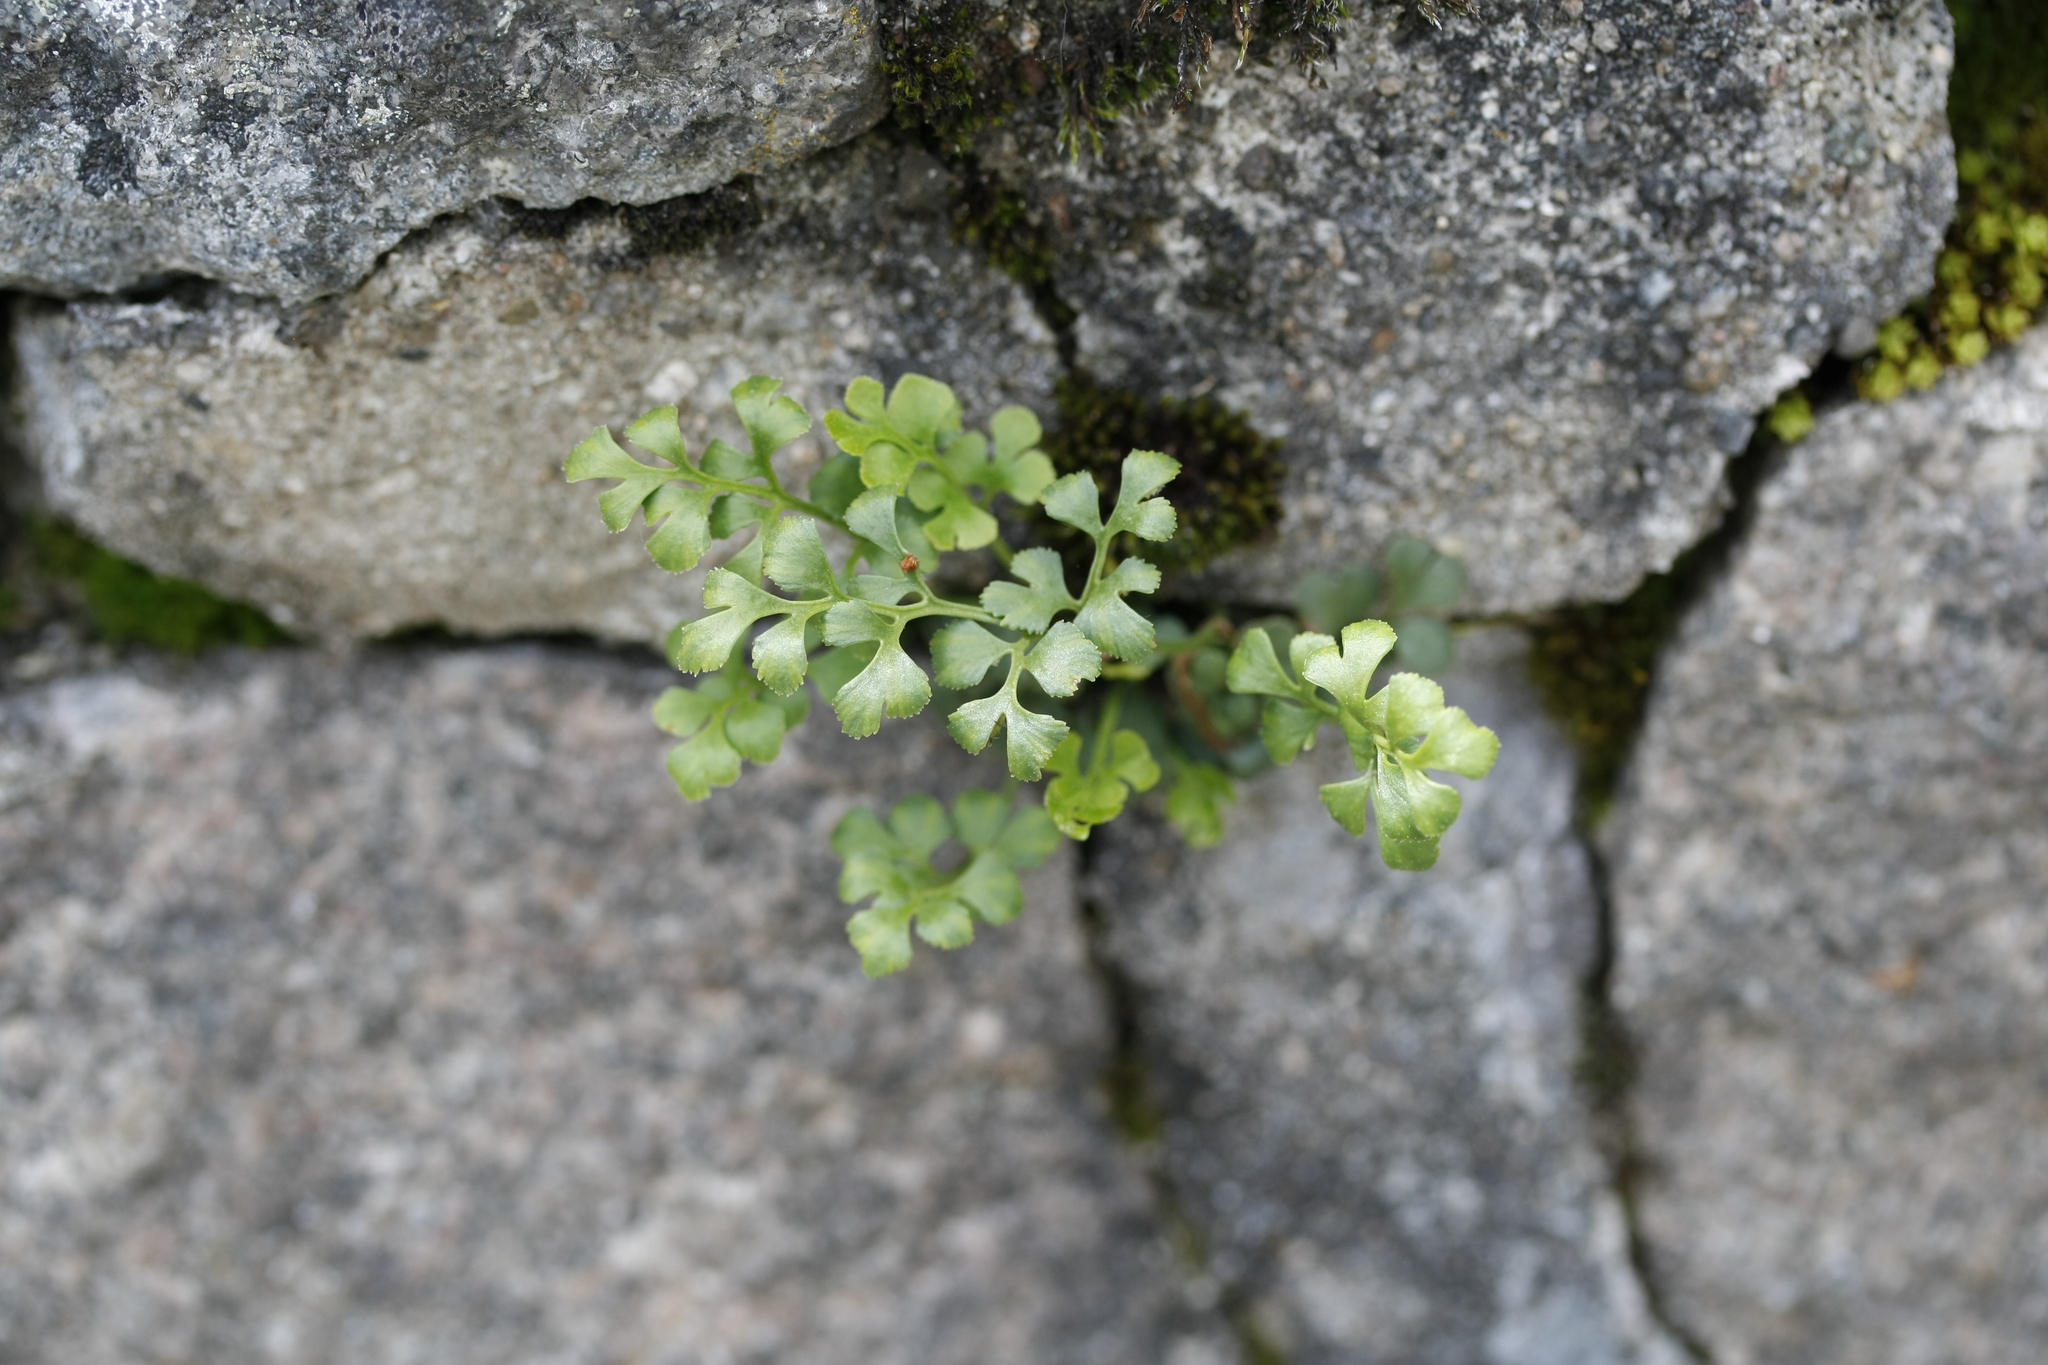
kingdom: Plantae
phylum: Tracheophyta
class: Polypodiopsida
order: Polypodiales
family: Aspleniaceae
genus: Asplenium
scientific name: Asplenium ruta-muraria
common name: Wall-rue
